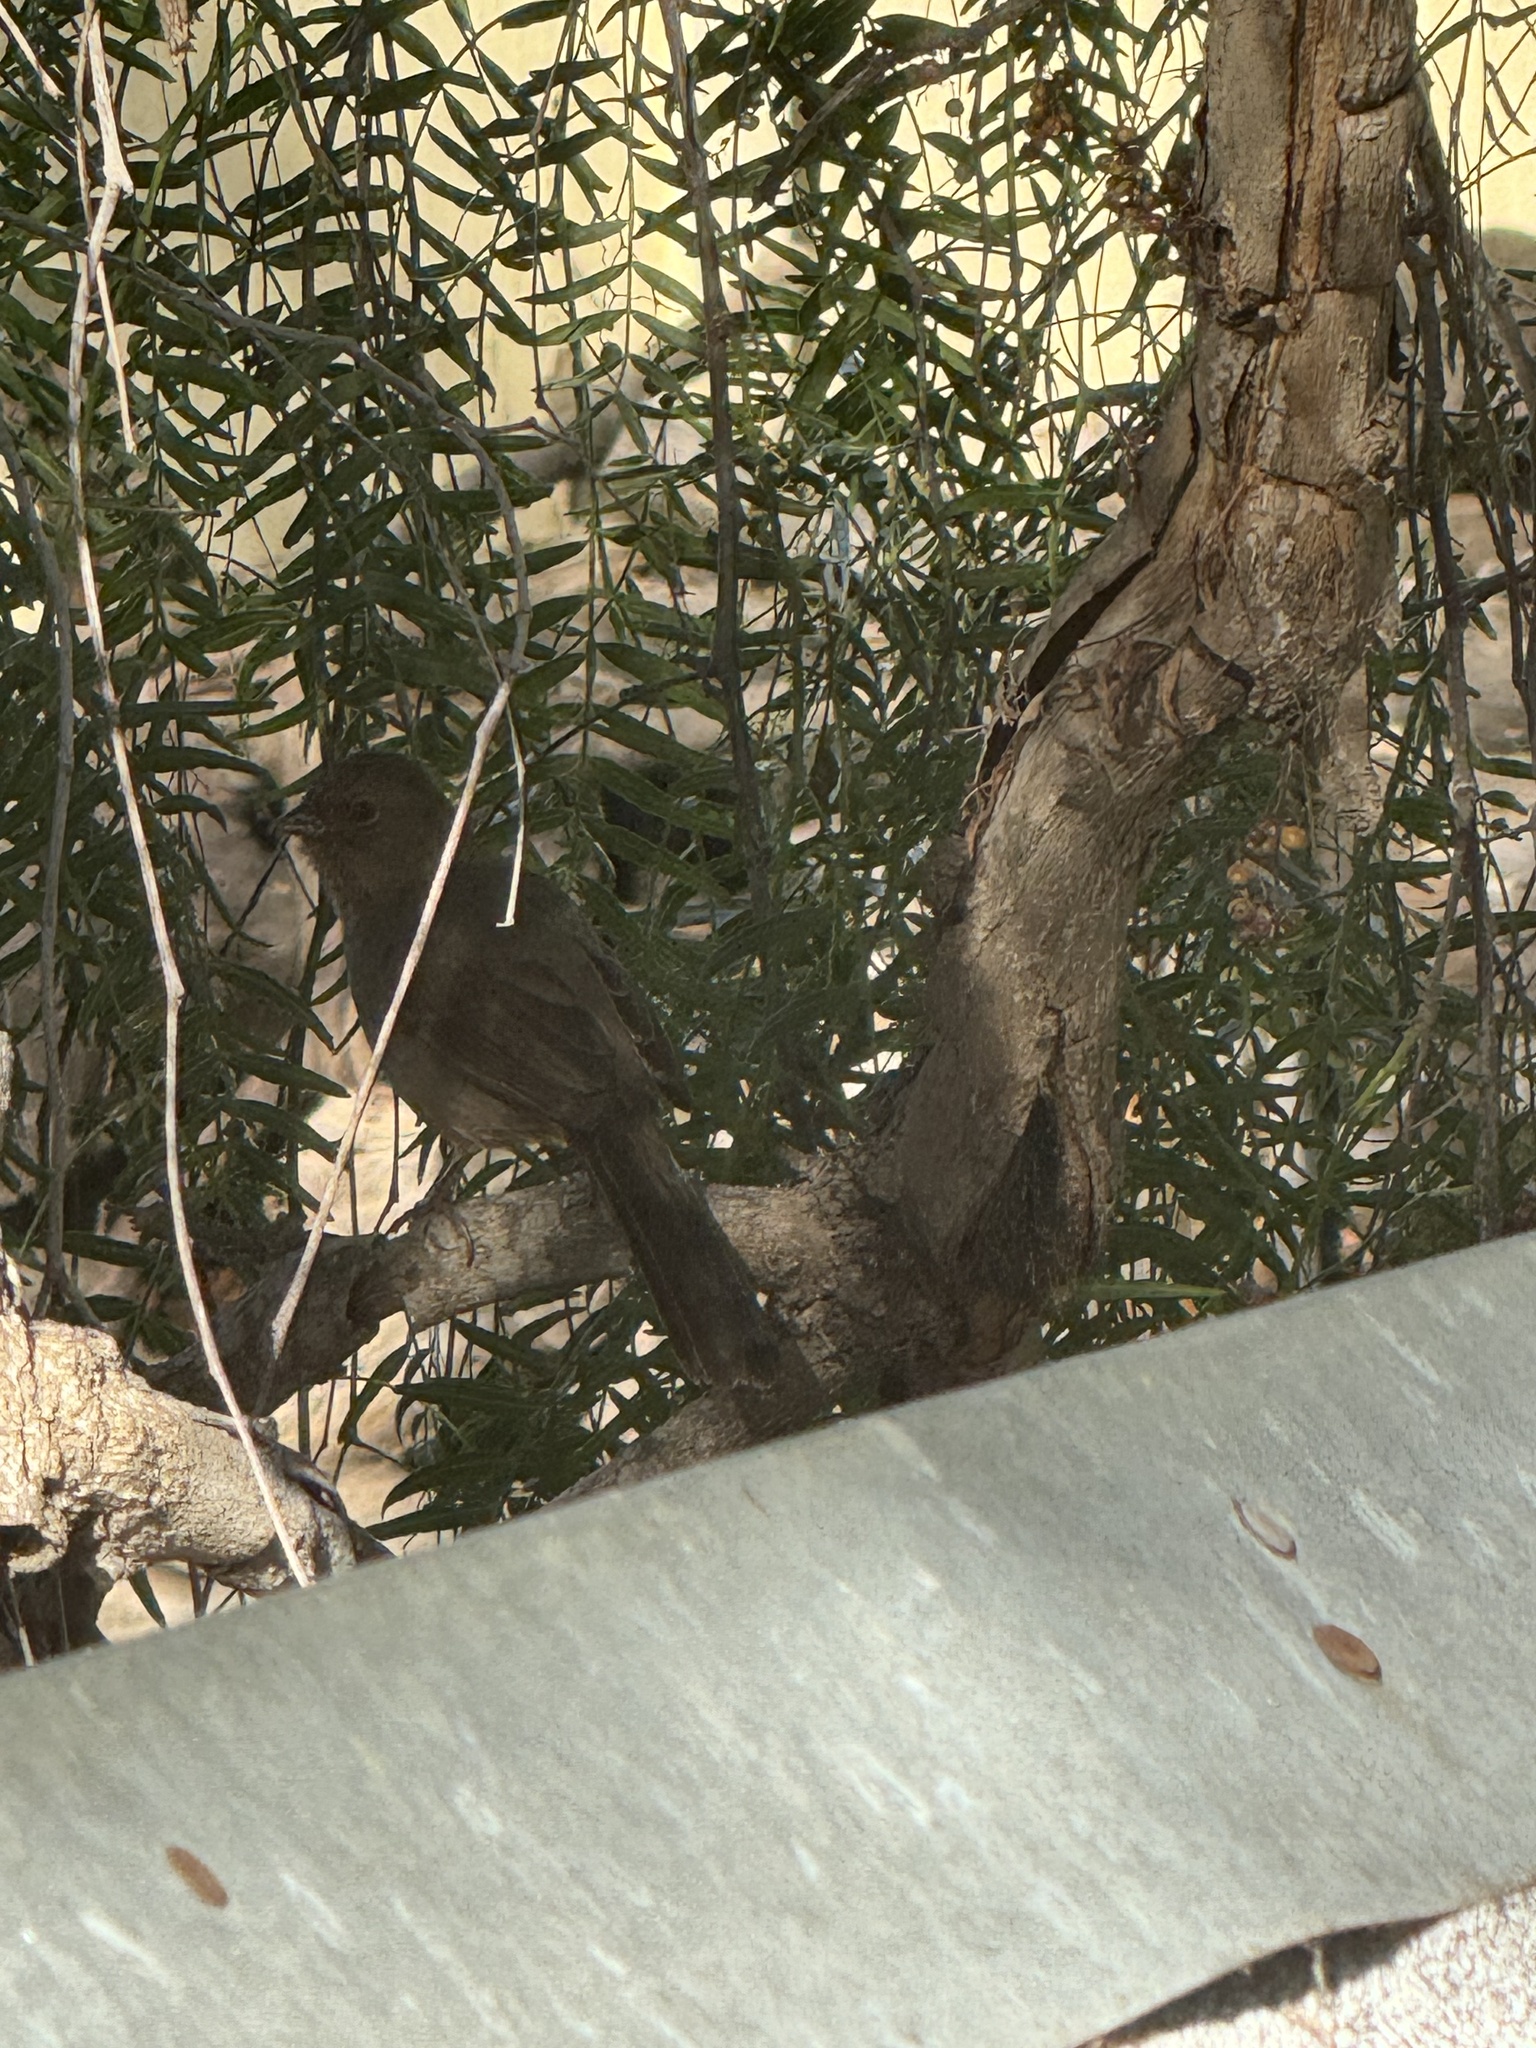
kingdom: Animalia
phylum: Chordata
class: Aves
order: Passeriformes
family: Passerellidae
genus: Melozone
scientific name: Melozone crissalis
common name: California towhee
